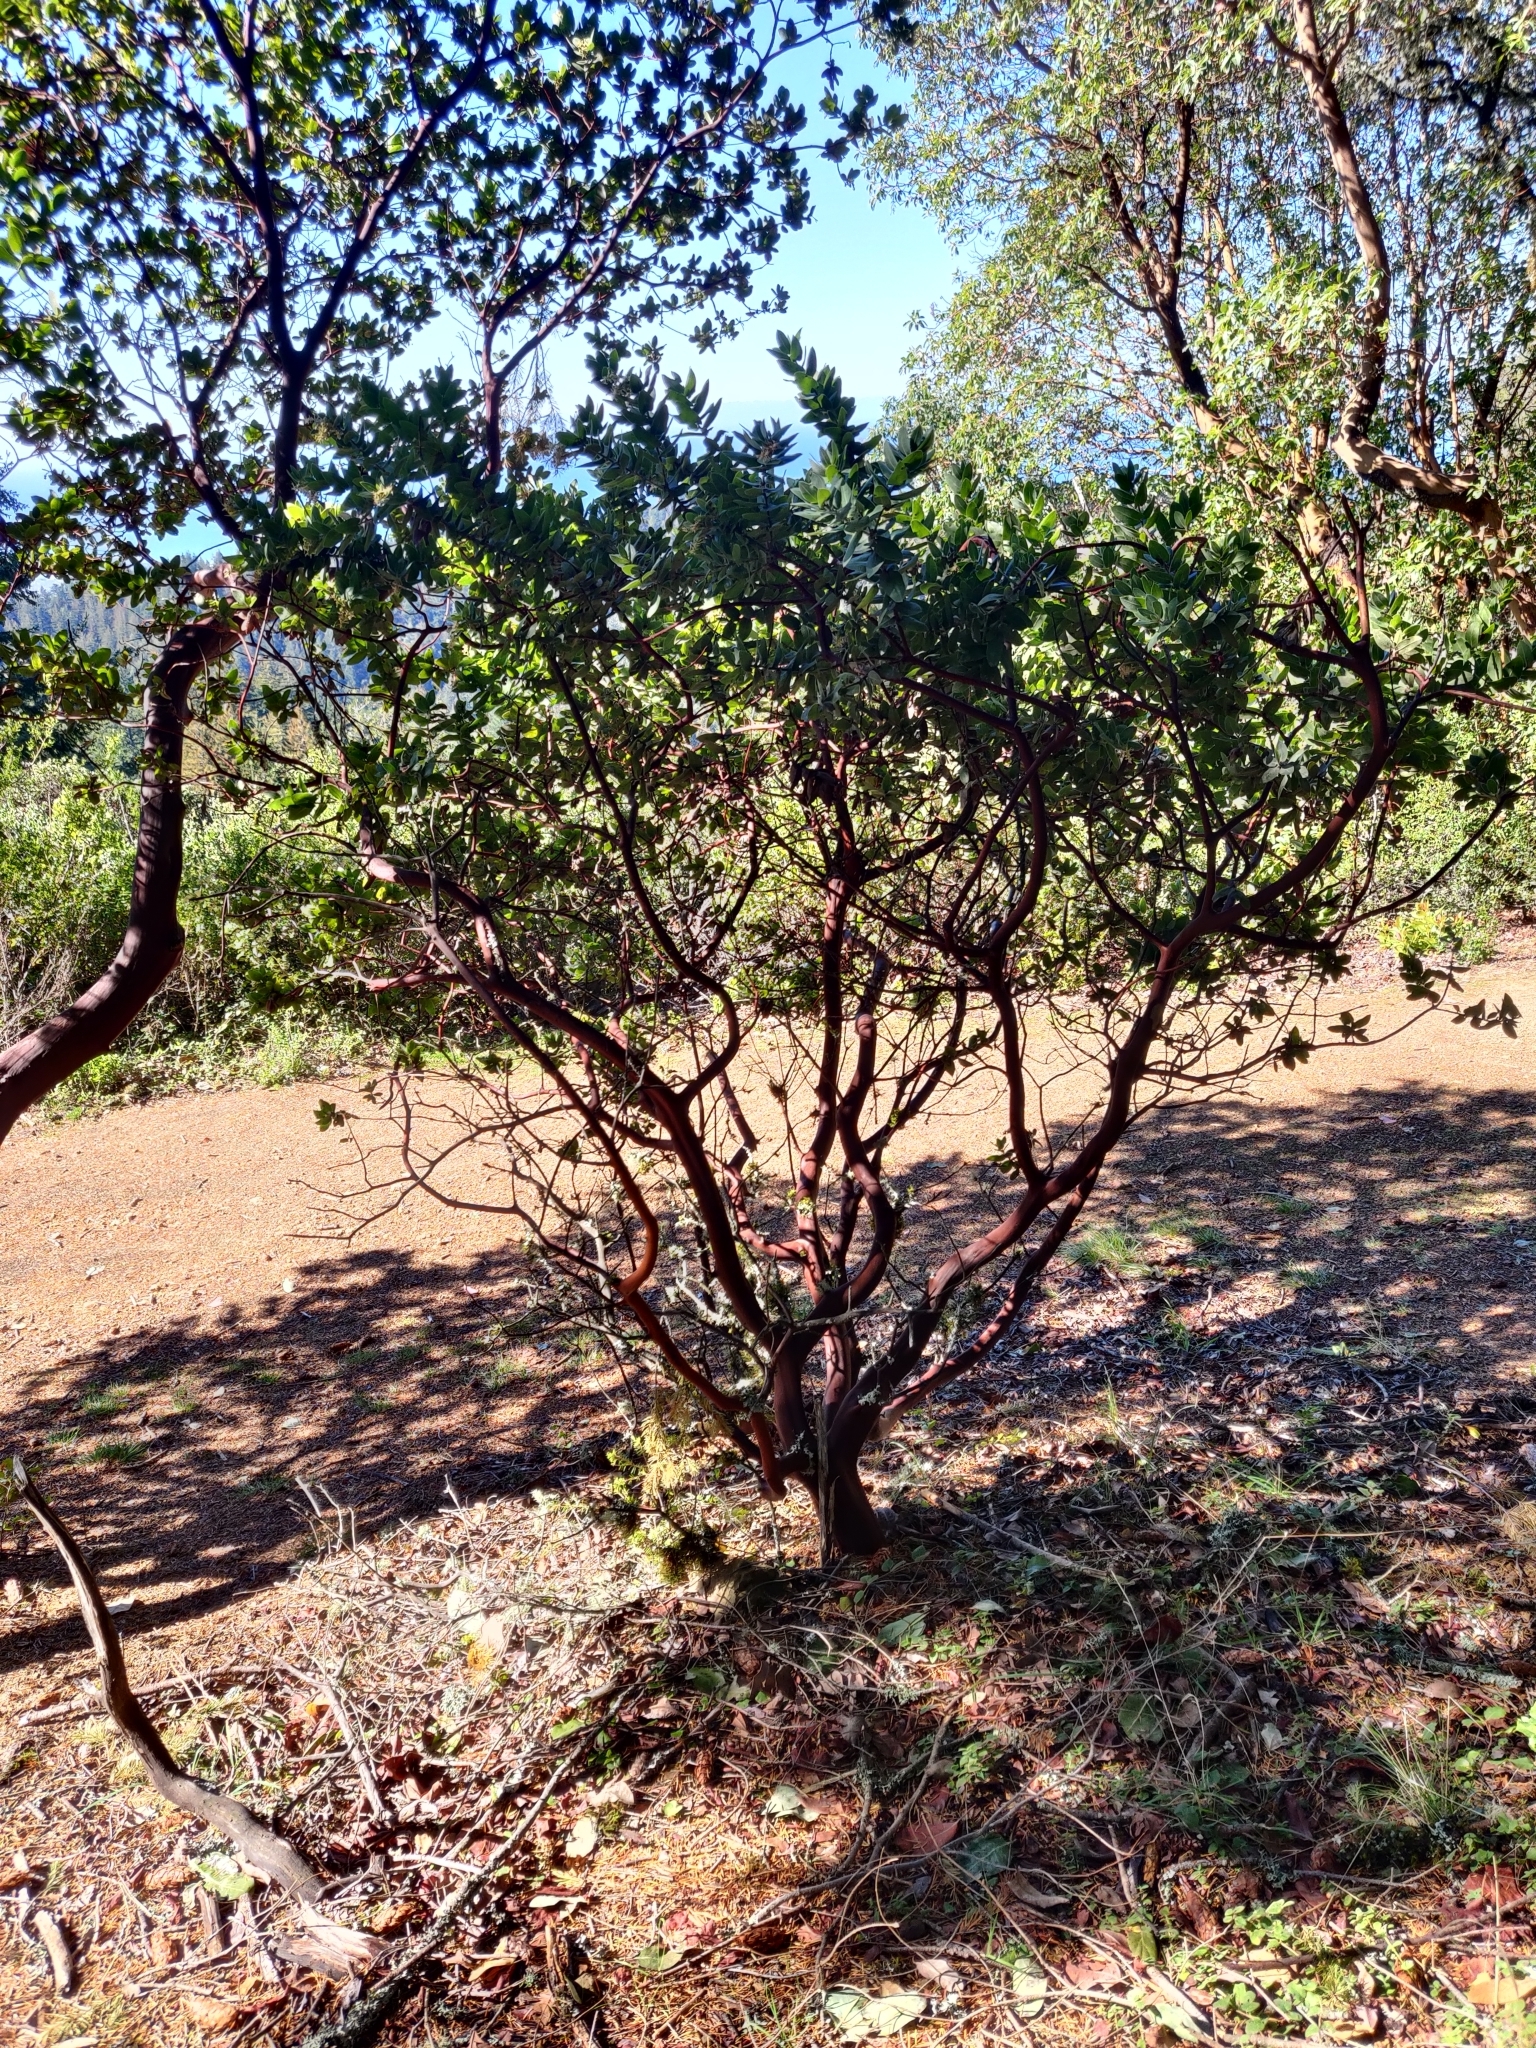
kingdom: Plantae
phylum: Tracheophyta
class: Magnoliopsida
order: Ericales
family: Ericaceae
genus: Arctostaphylos
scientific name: Arctostaphylos regismontana
